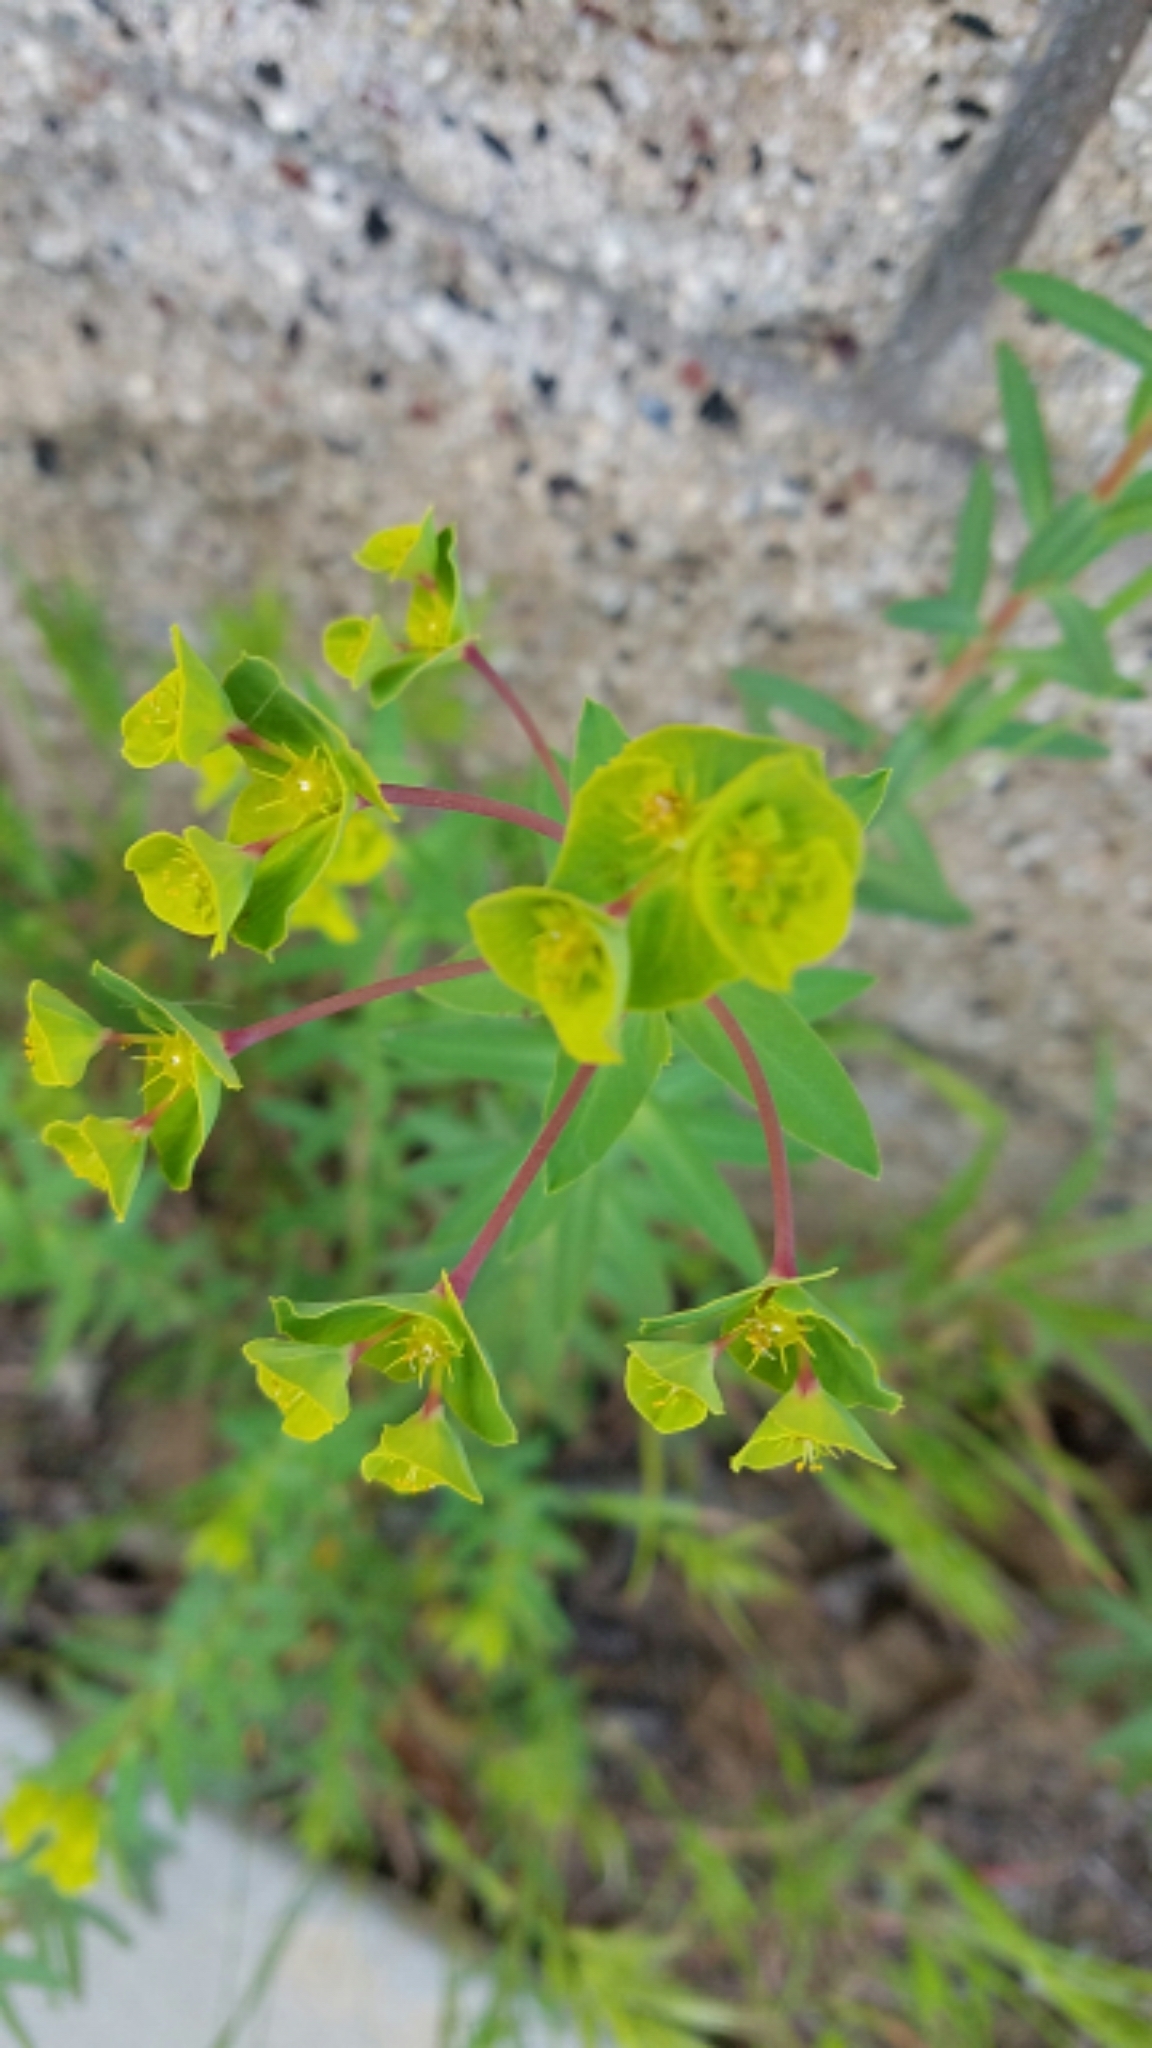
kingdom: Plantae
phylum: Tracheophyta
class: Magnoliopsida
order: Malpighiales
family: Euphorbiaceae
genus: Euphorbia
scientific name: Euphorbia terracina
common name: Geraldton carnation weed
